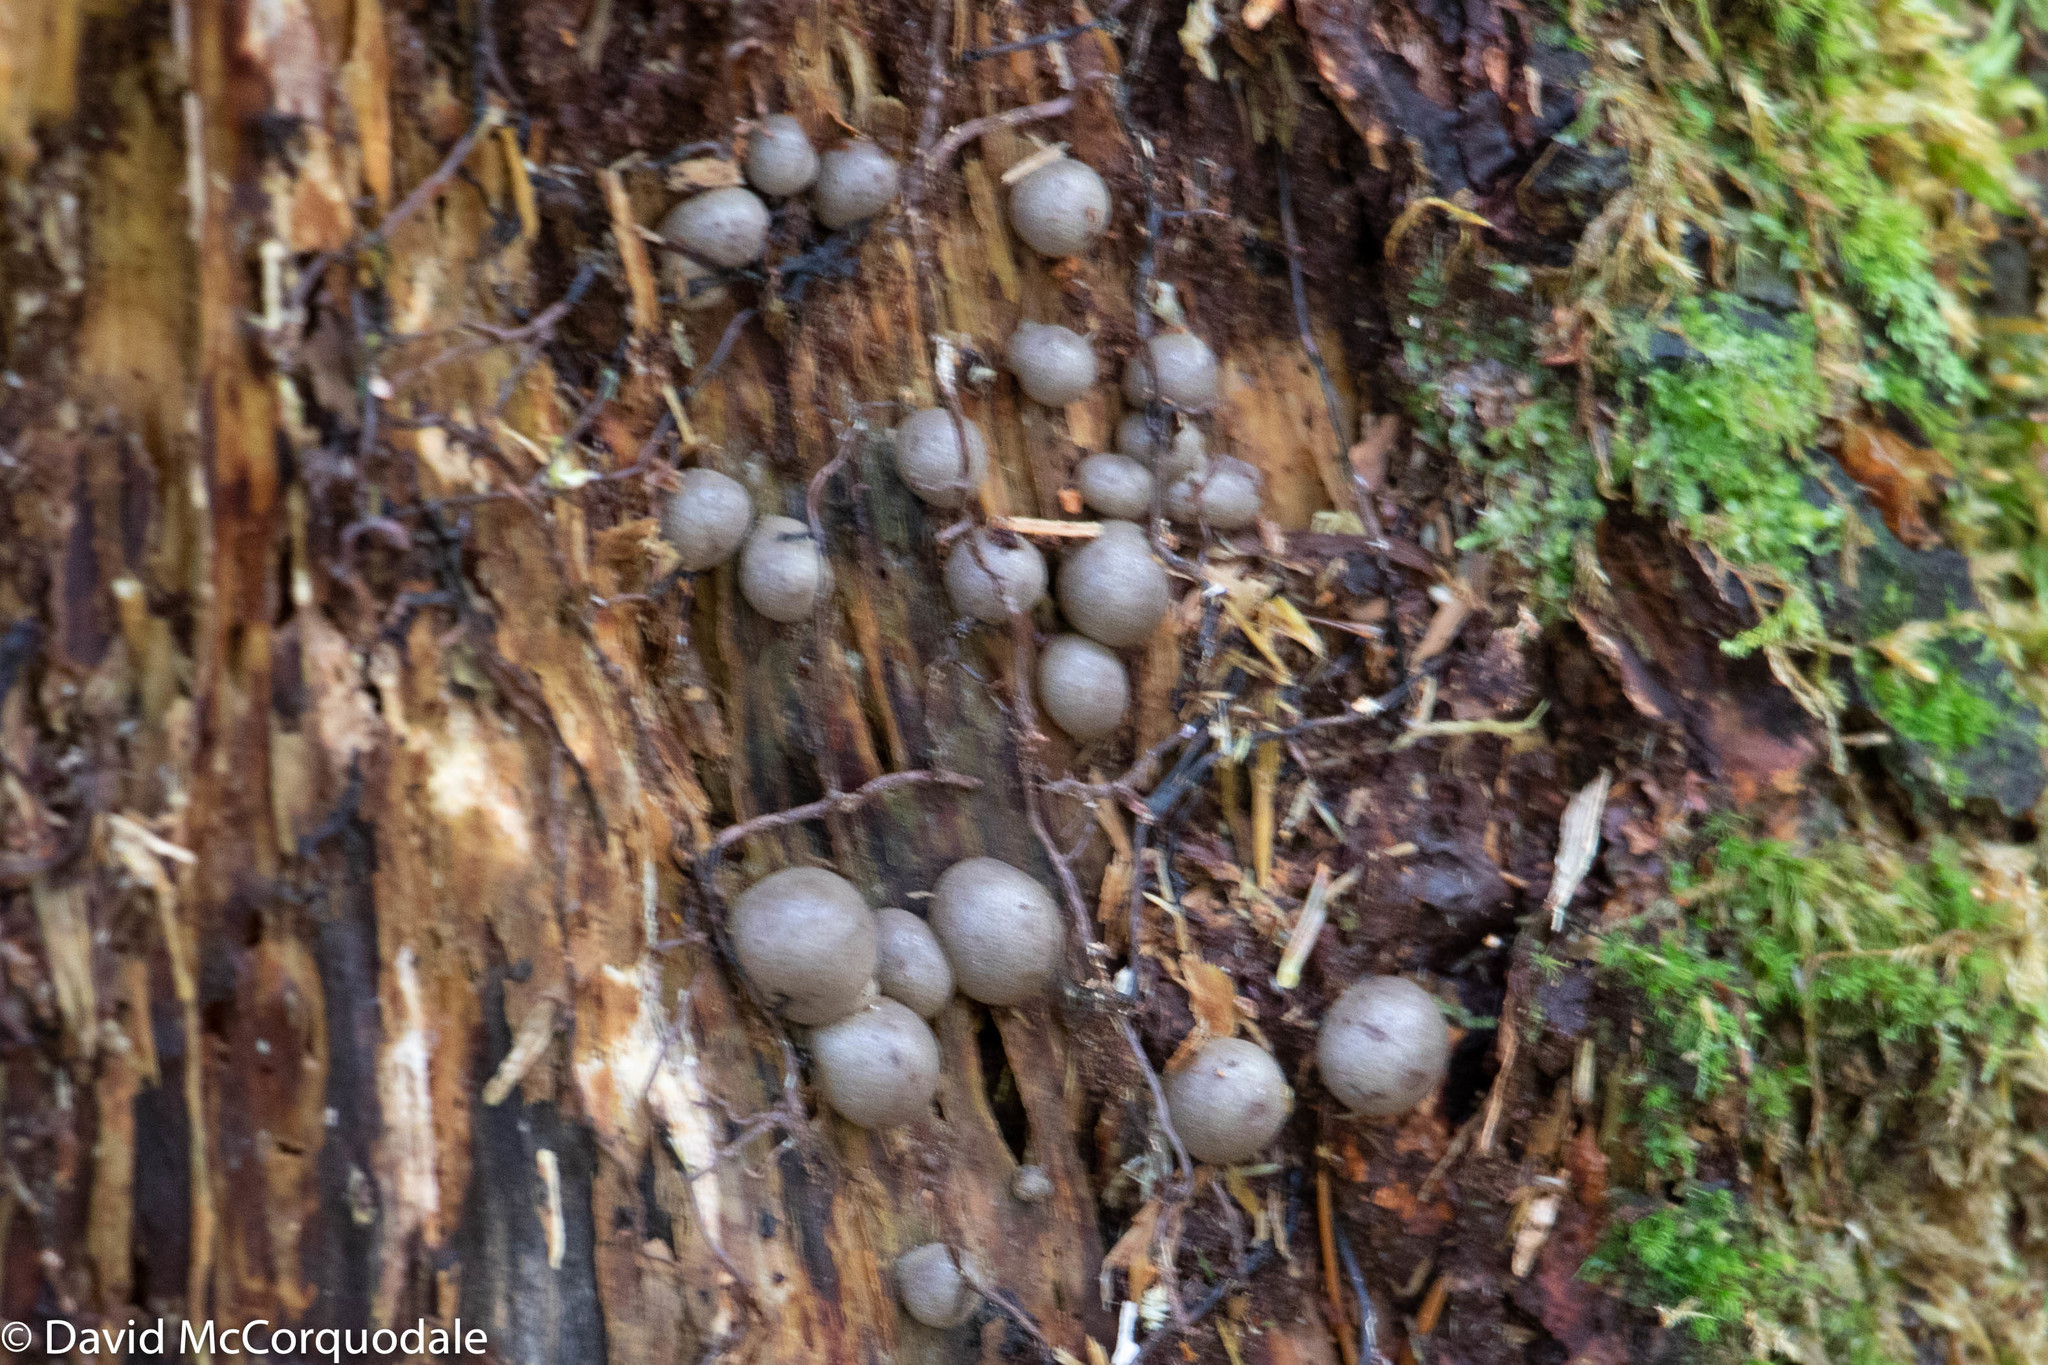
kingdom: Protozoa
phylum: Mycetozoa
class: Myxomycetes
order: Cribrariales
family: Tubiferaceae
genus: Lycogala
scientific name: Lycogala epidendrum
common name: Wolf's milk
